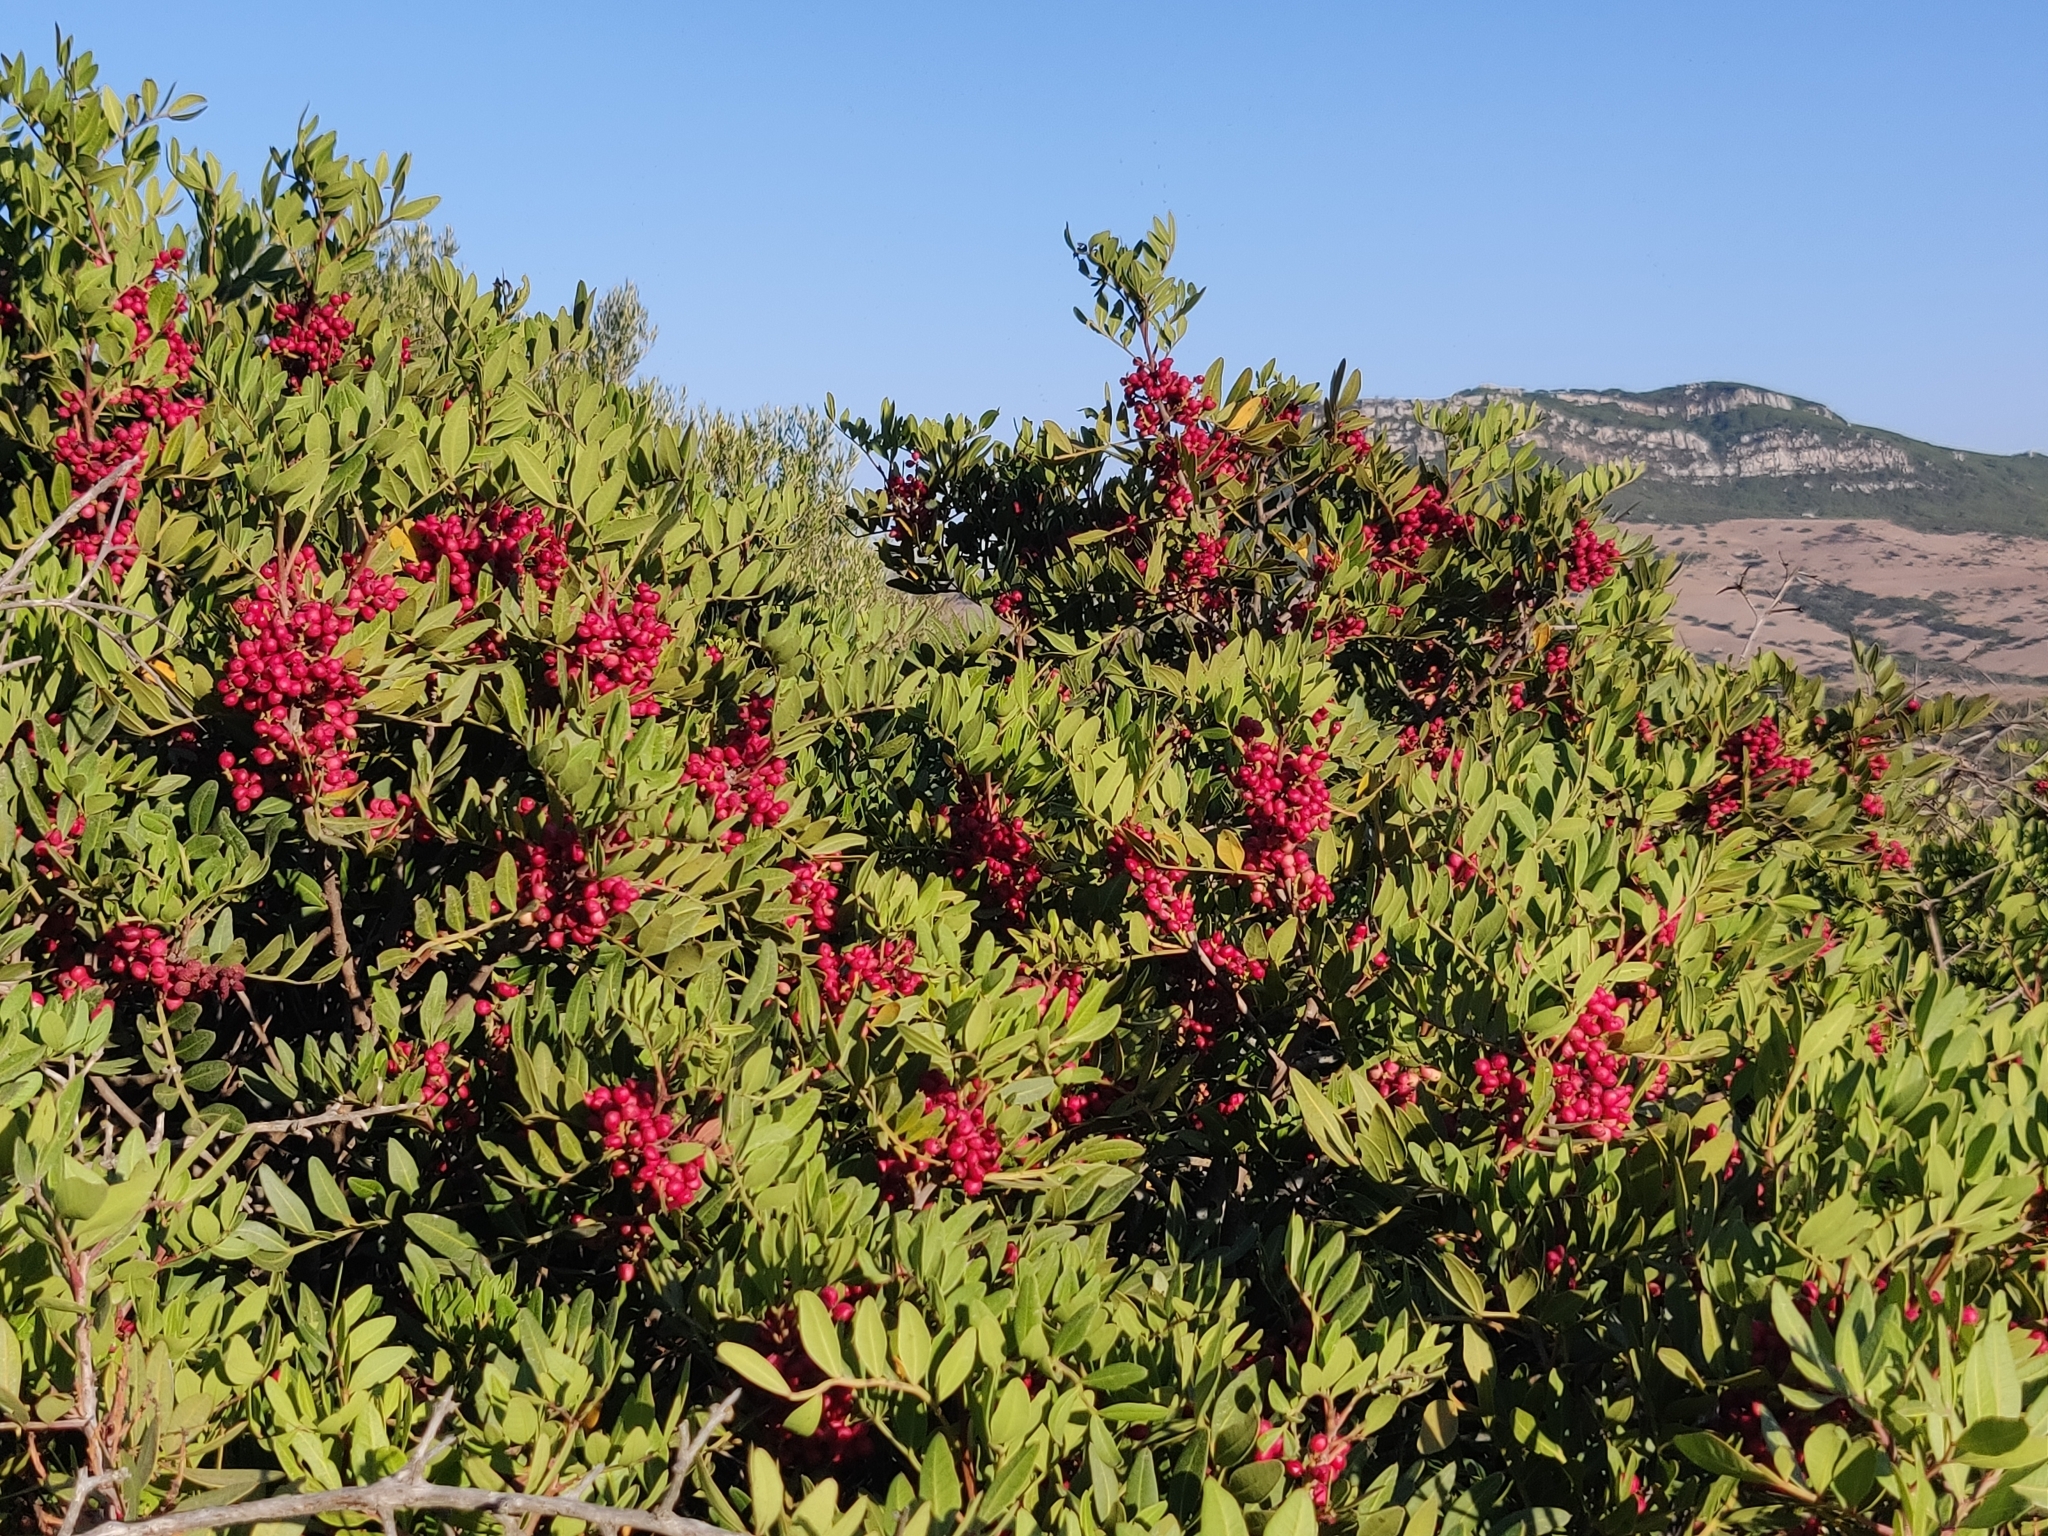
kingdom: Plantae
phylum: Tracheophyta
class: Magnoliopsida
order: Sapindales
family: Anacardiaceae
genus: Pistacia
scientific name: Pistacia lentiscus
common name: Lentisk
